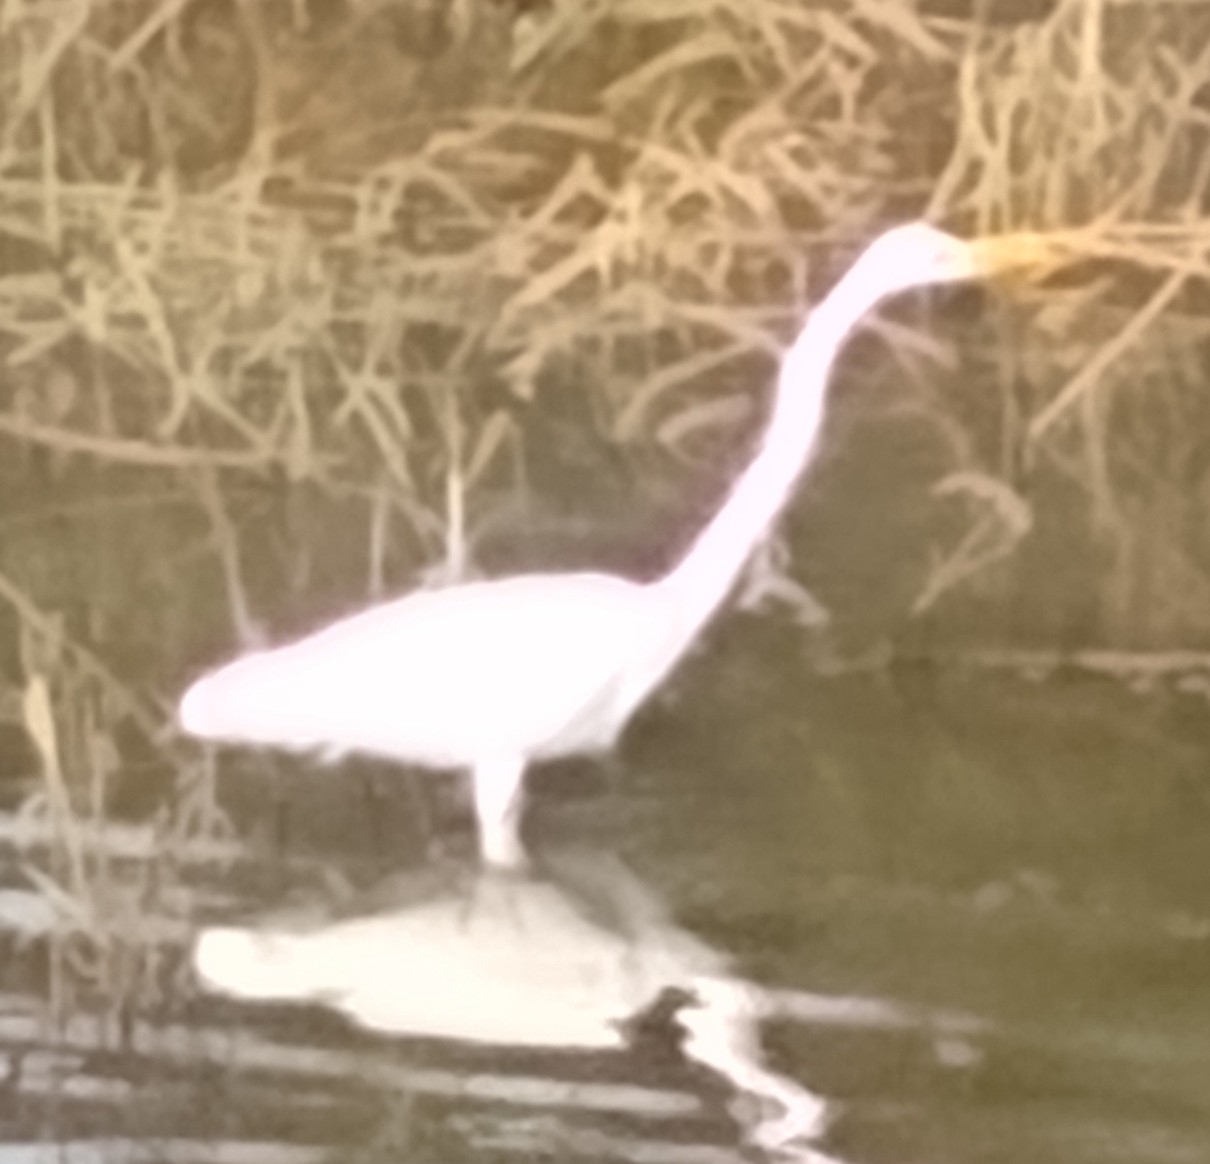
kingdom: Animalia
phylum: Chordata
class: Aves
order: Pelecaniformes
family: Ardeidae
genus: Ardea
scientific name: Ardea alba
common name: Great egret
